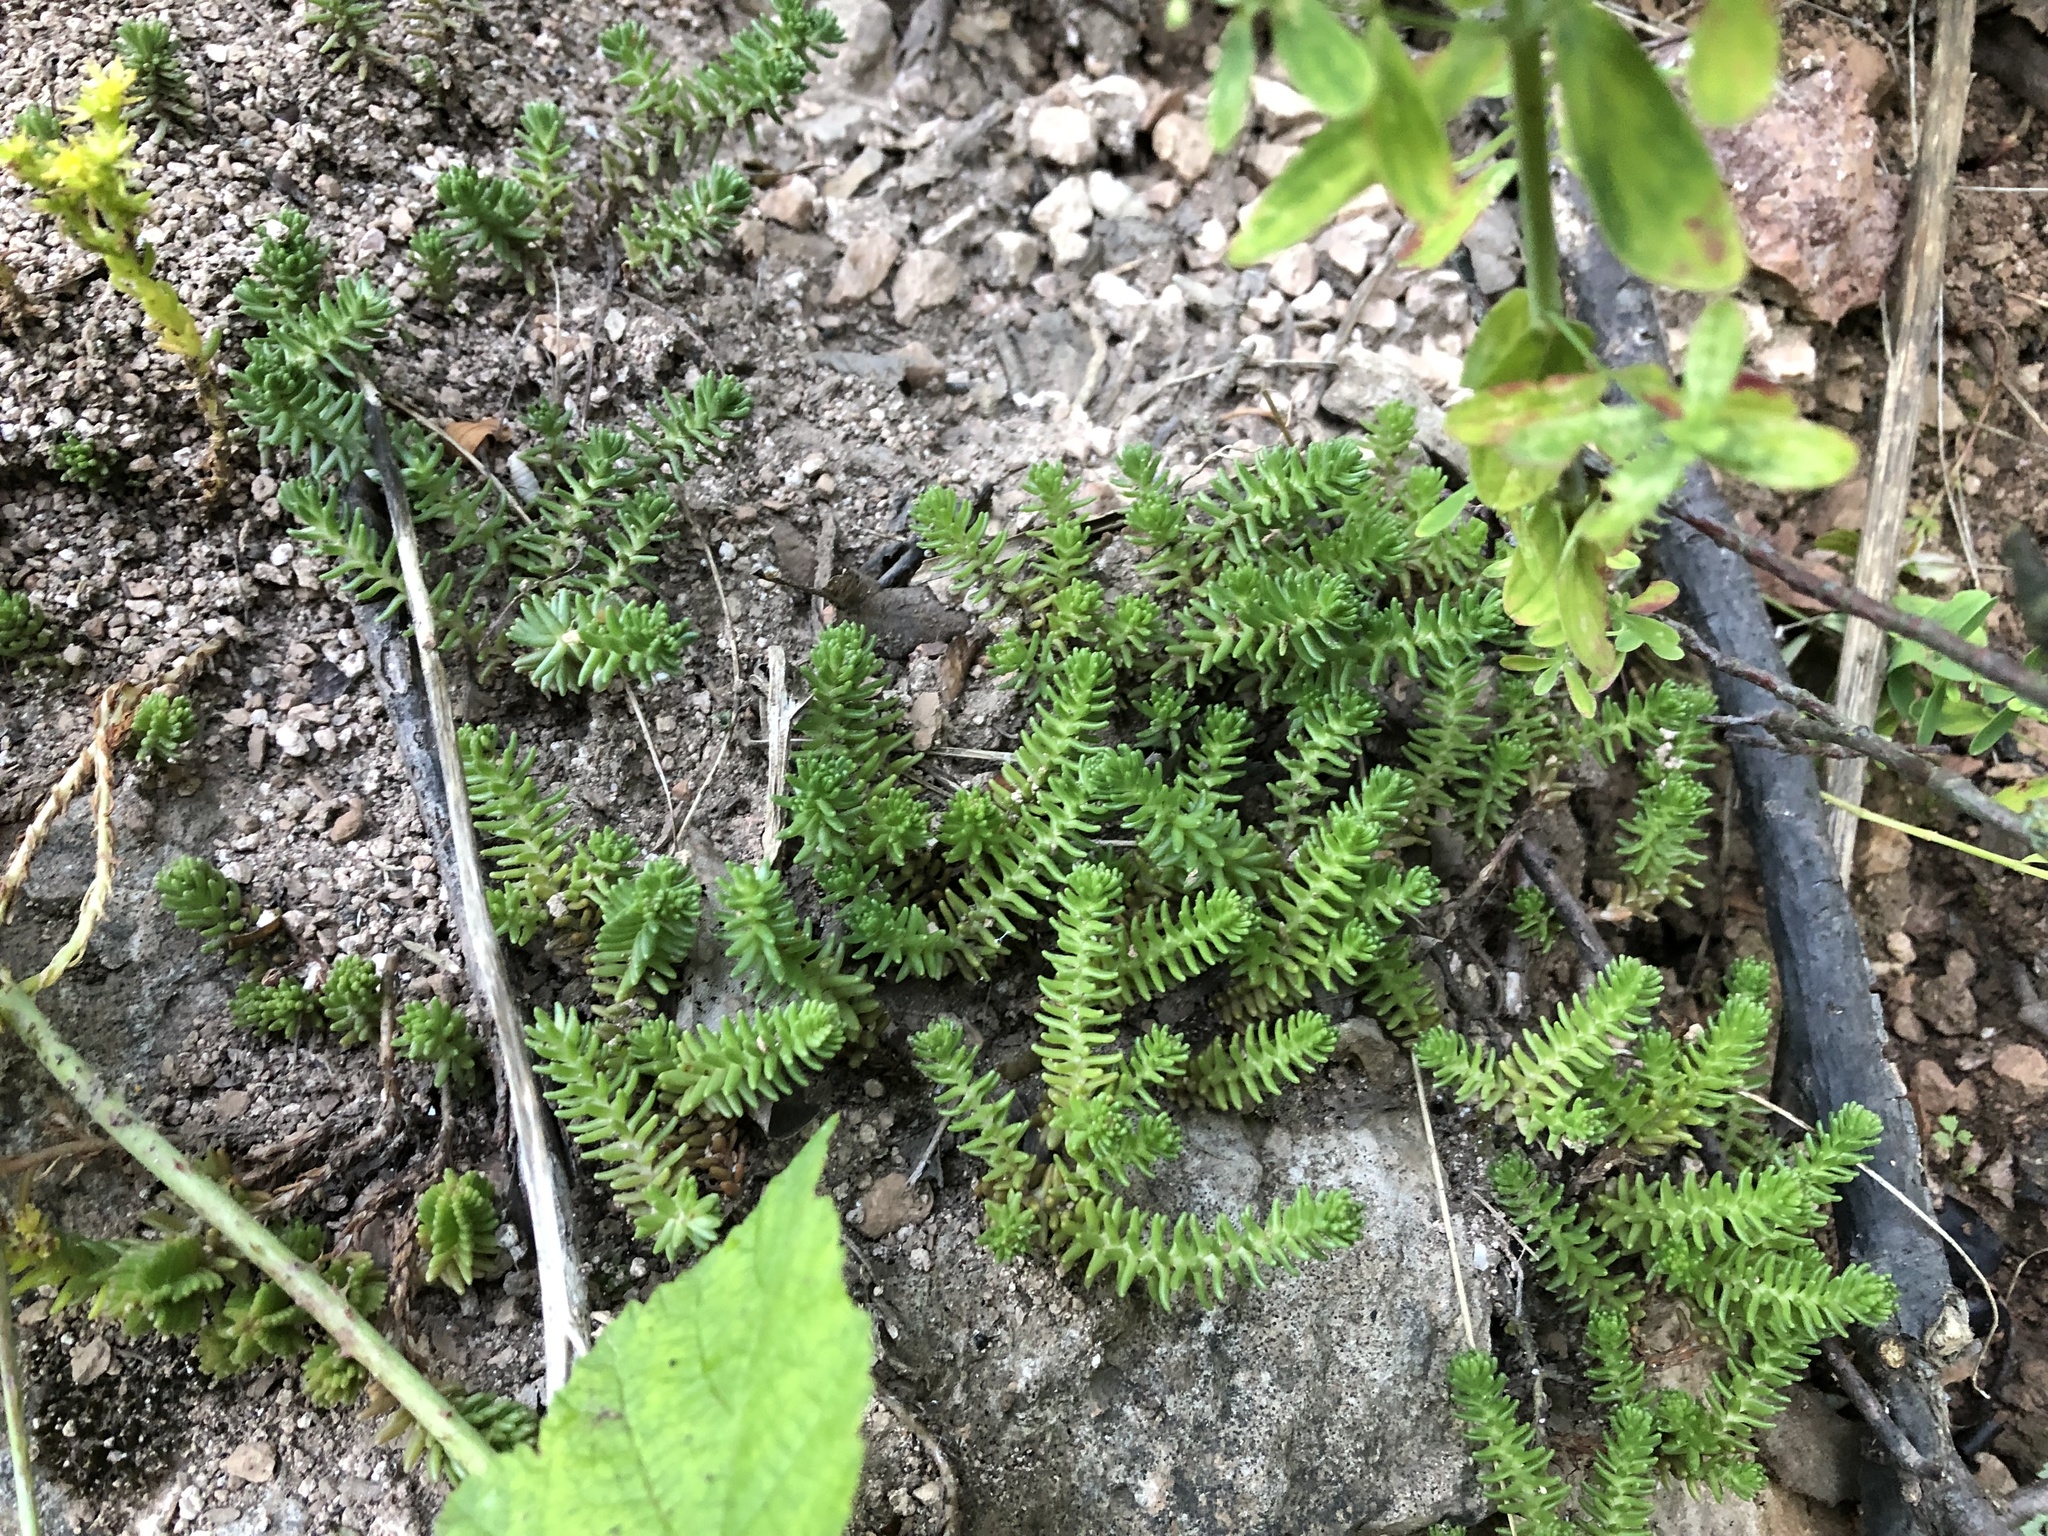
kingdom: Plantae
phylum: Tracheophyta
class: Magnoliopsida
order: Saxifragales
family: Crassulaceae
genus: Sedum
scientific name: Sedum sexangulare
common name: Tasteless stonecrop
